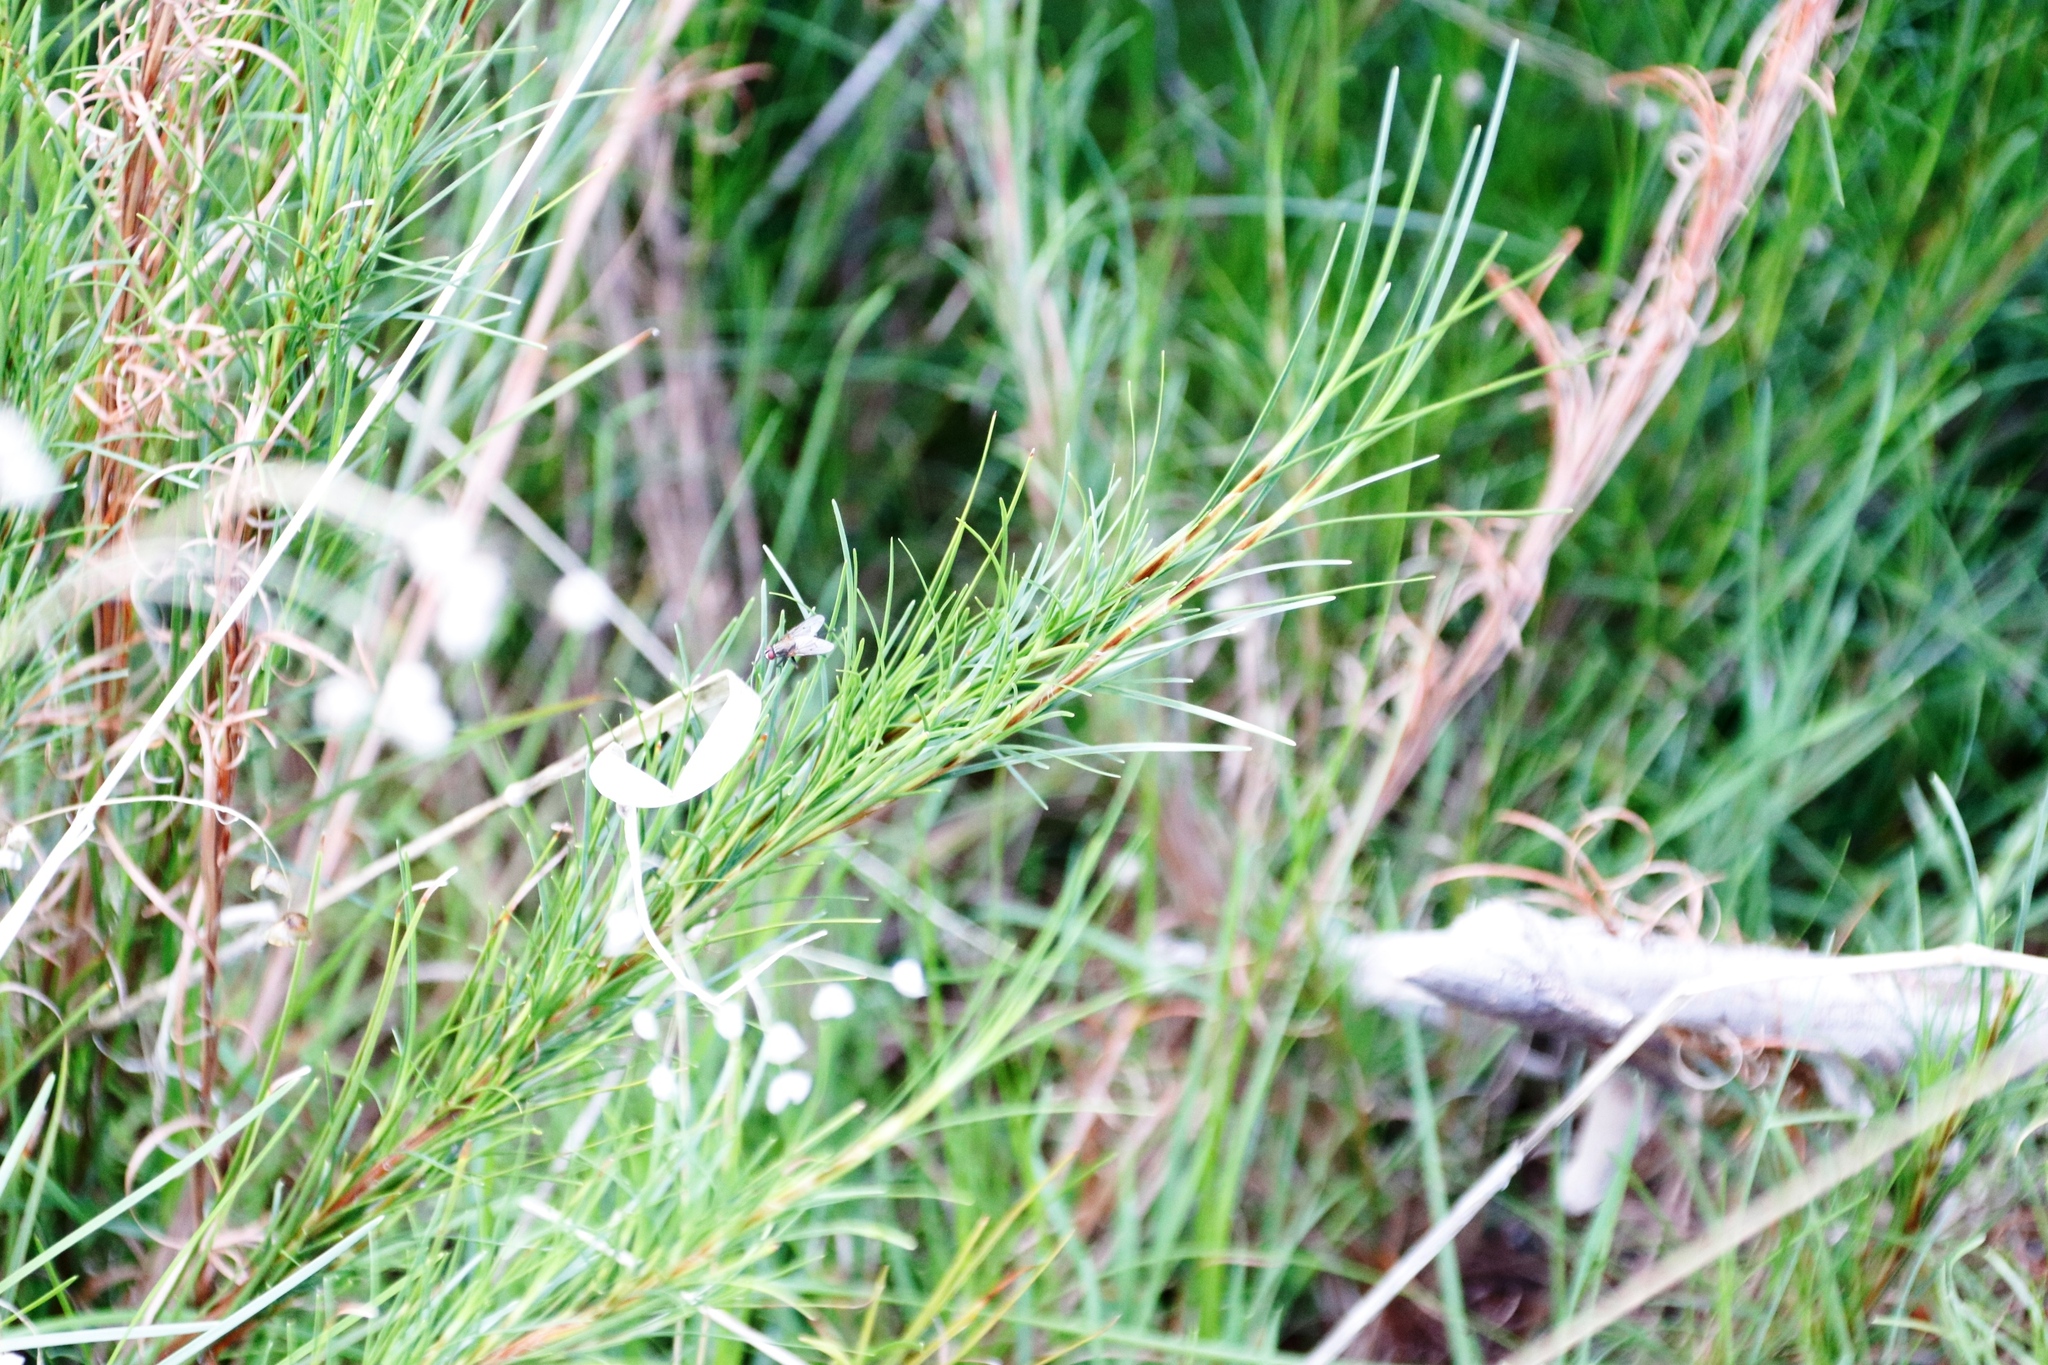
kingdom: Plantae
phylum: Tracheophyta
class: Liliopsida
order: Poales
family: Cyperaceae
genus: Ficinia
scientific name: Ficinia ramosissima
